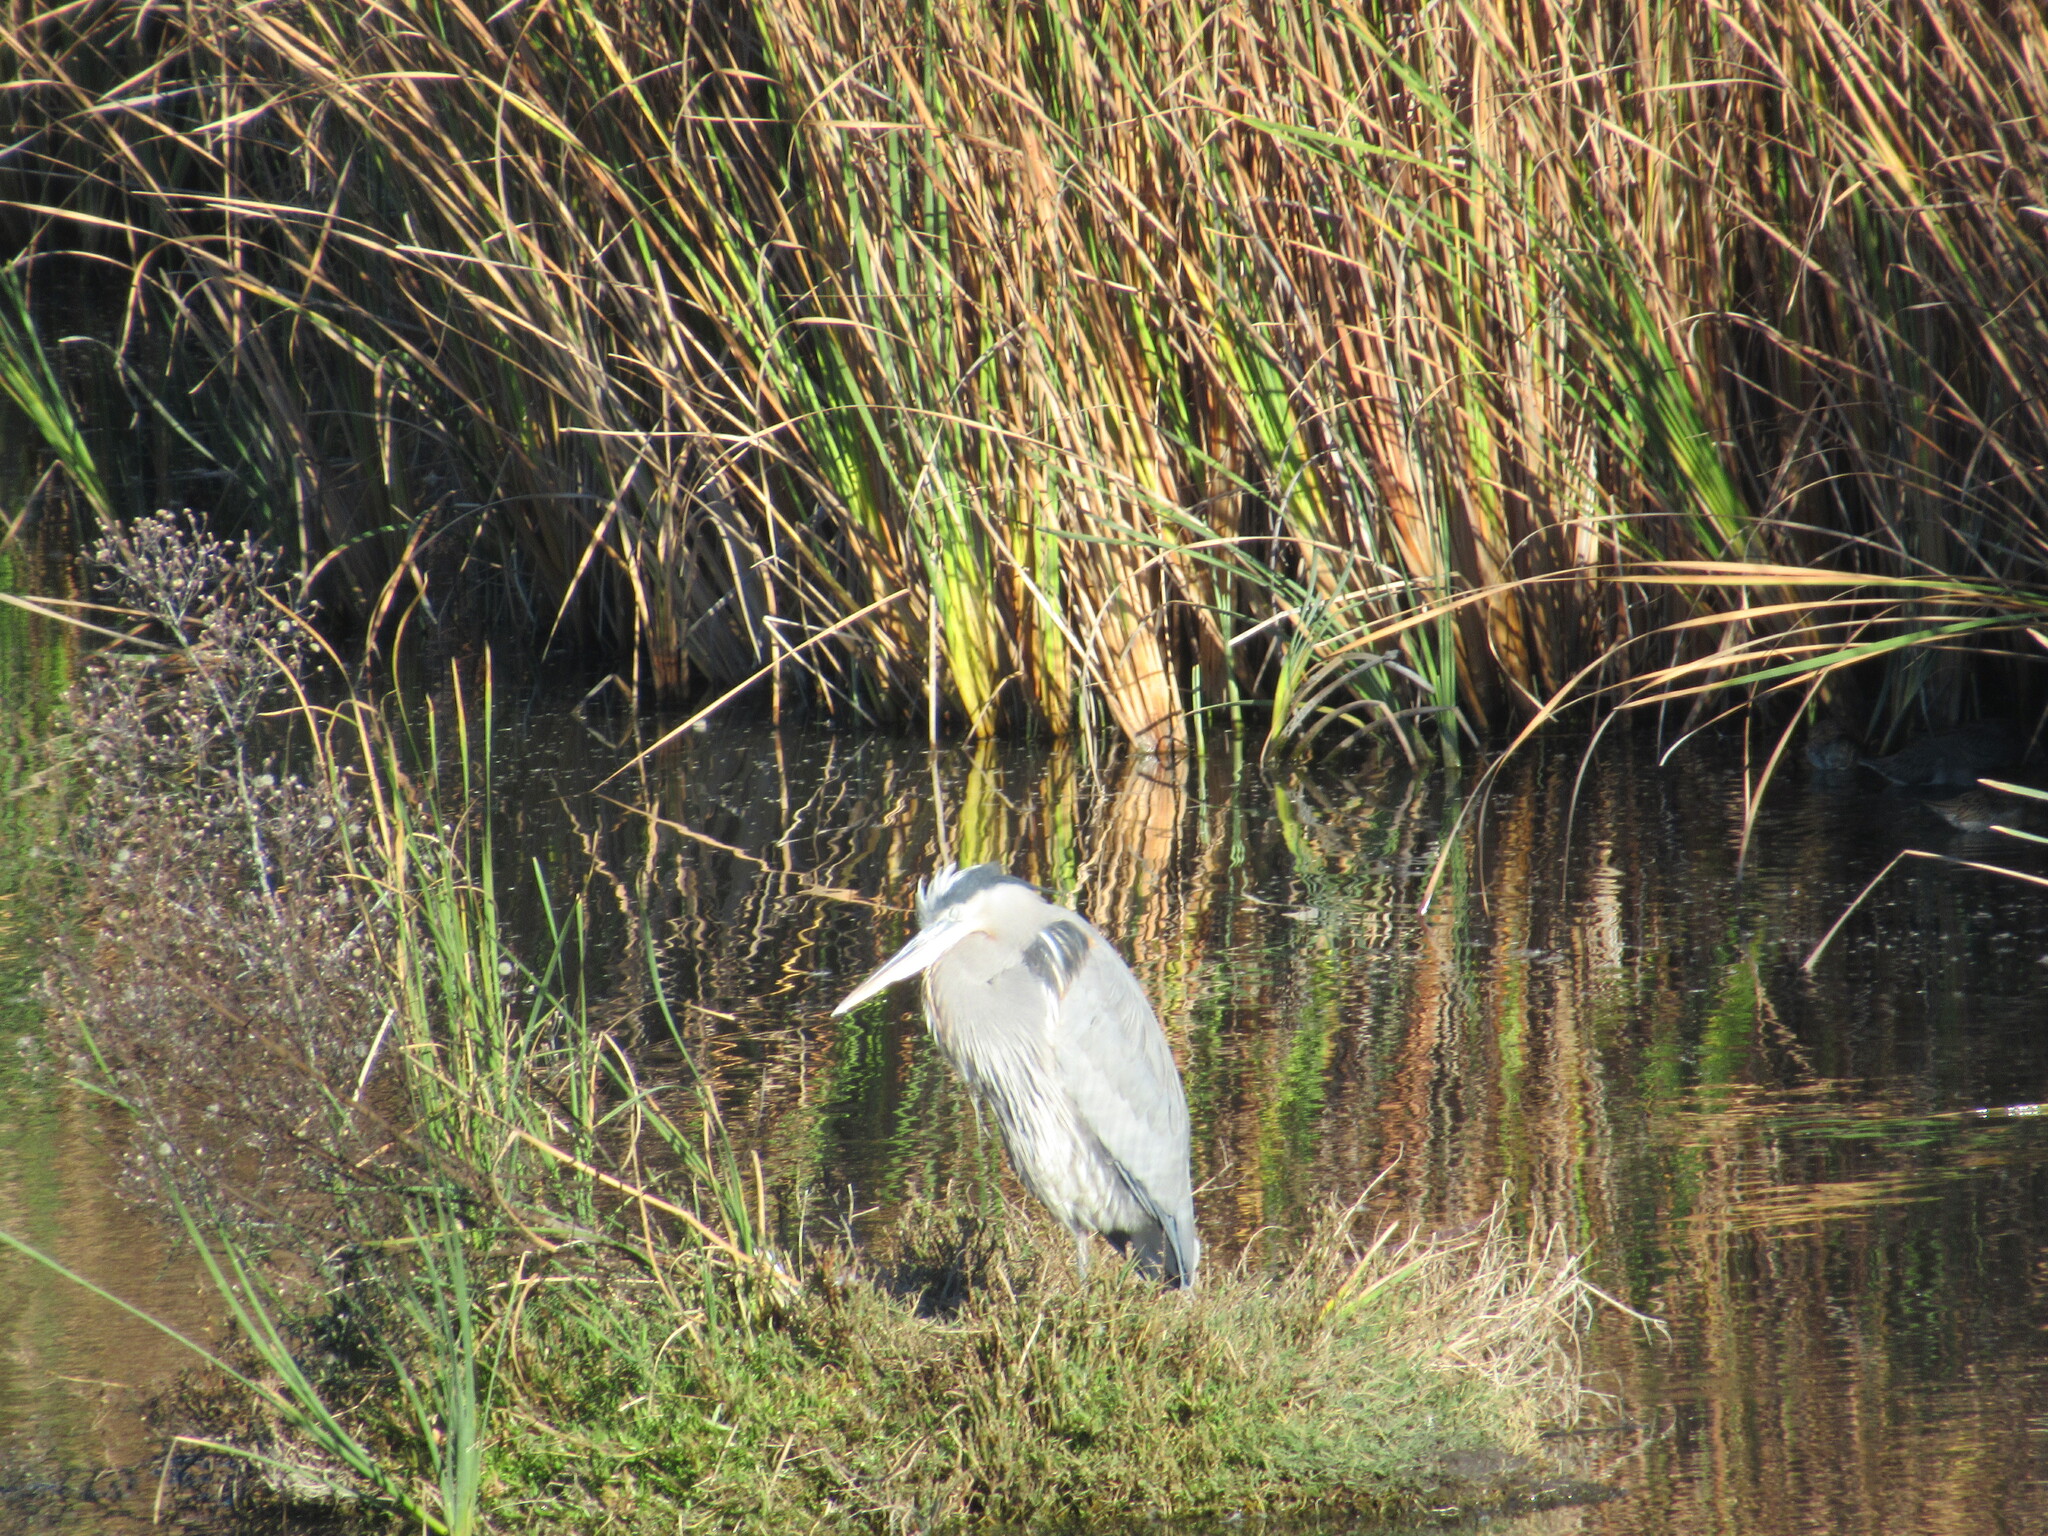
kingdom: Animalia
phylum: Chordata
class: Aves
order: Pelecaniformes
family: Ardeidae
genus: Ardea
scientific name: Ardea herodias
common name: Great blue heron
